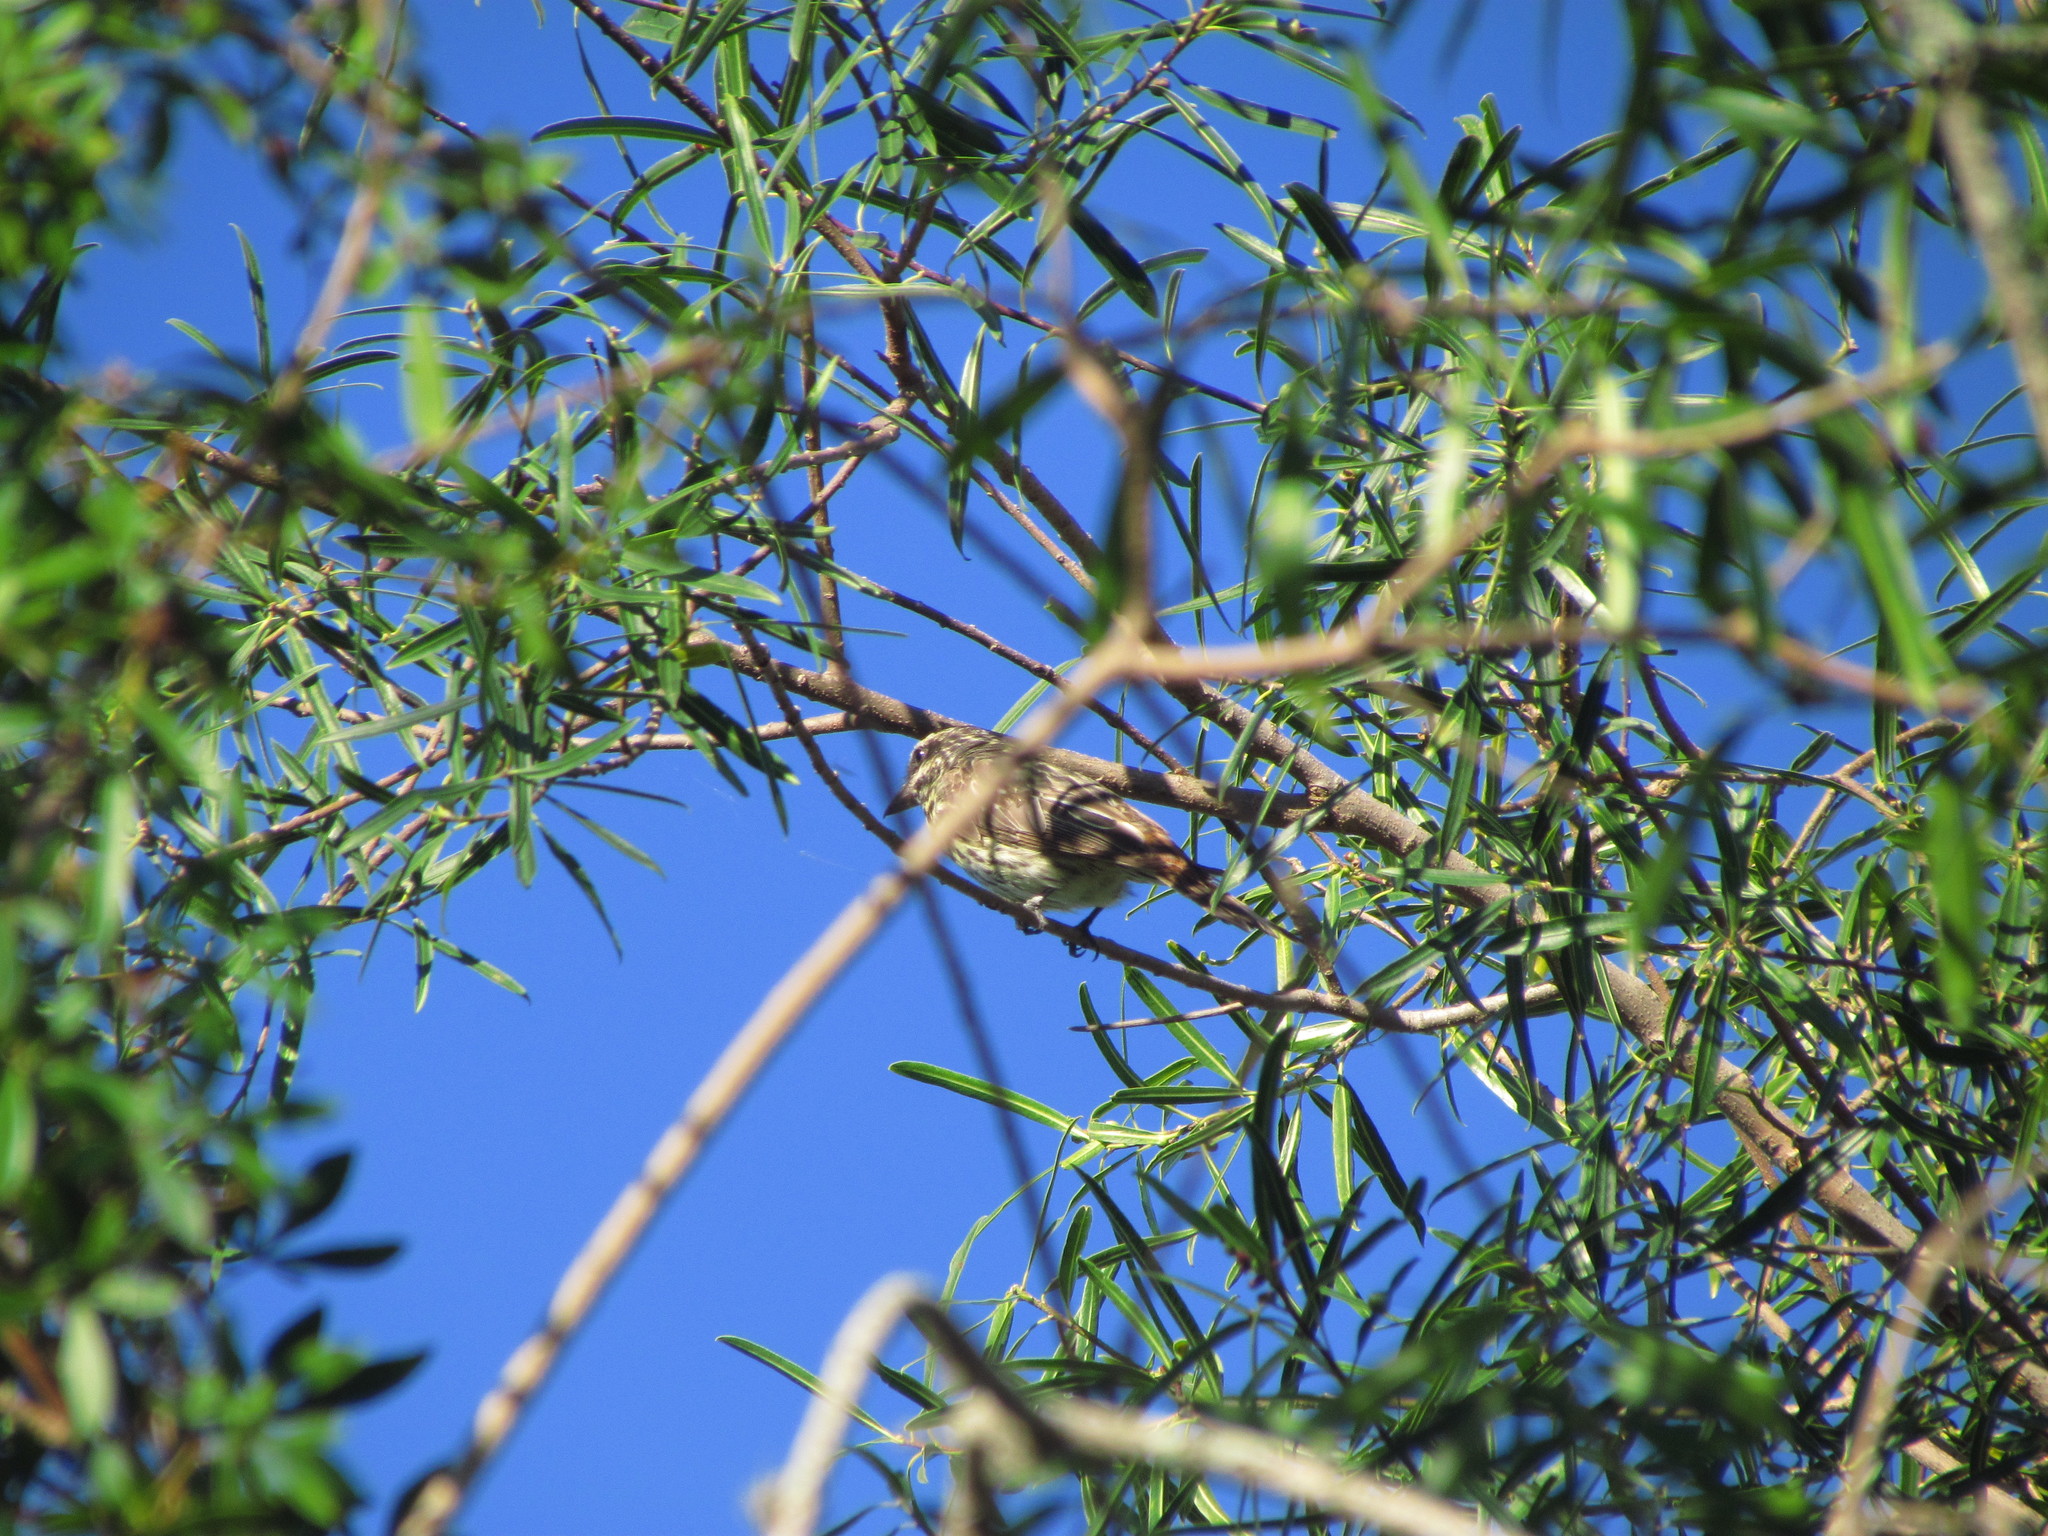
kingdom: Animalia
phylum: Chordata
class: Aves
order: Passeriformes
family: Tyrannidae
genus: Myiodynastes
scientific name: Myiodynastes maculatus
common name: Streaked flycatcher
